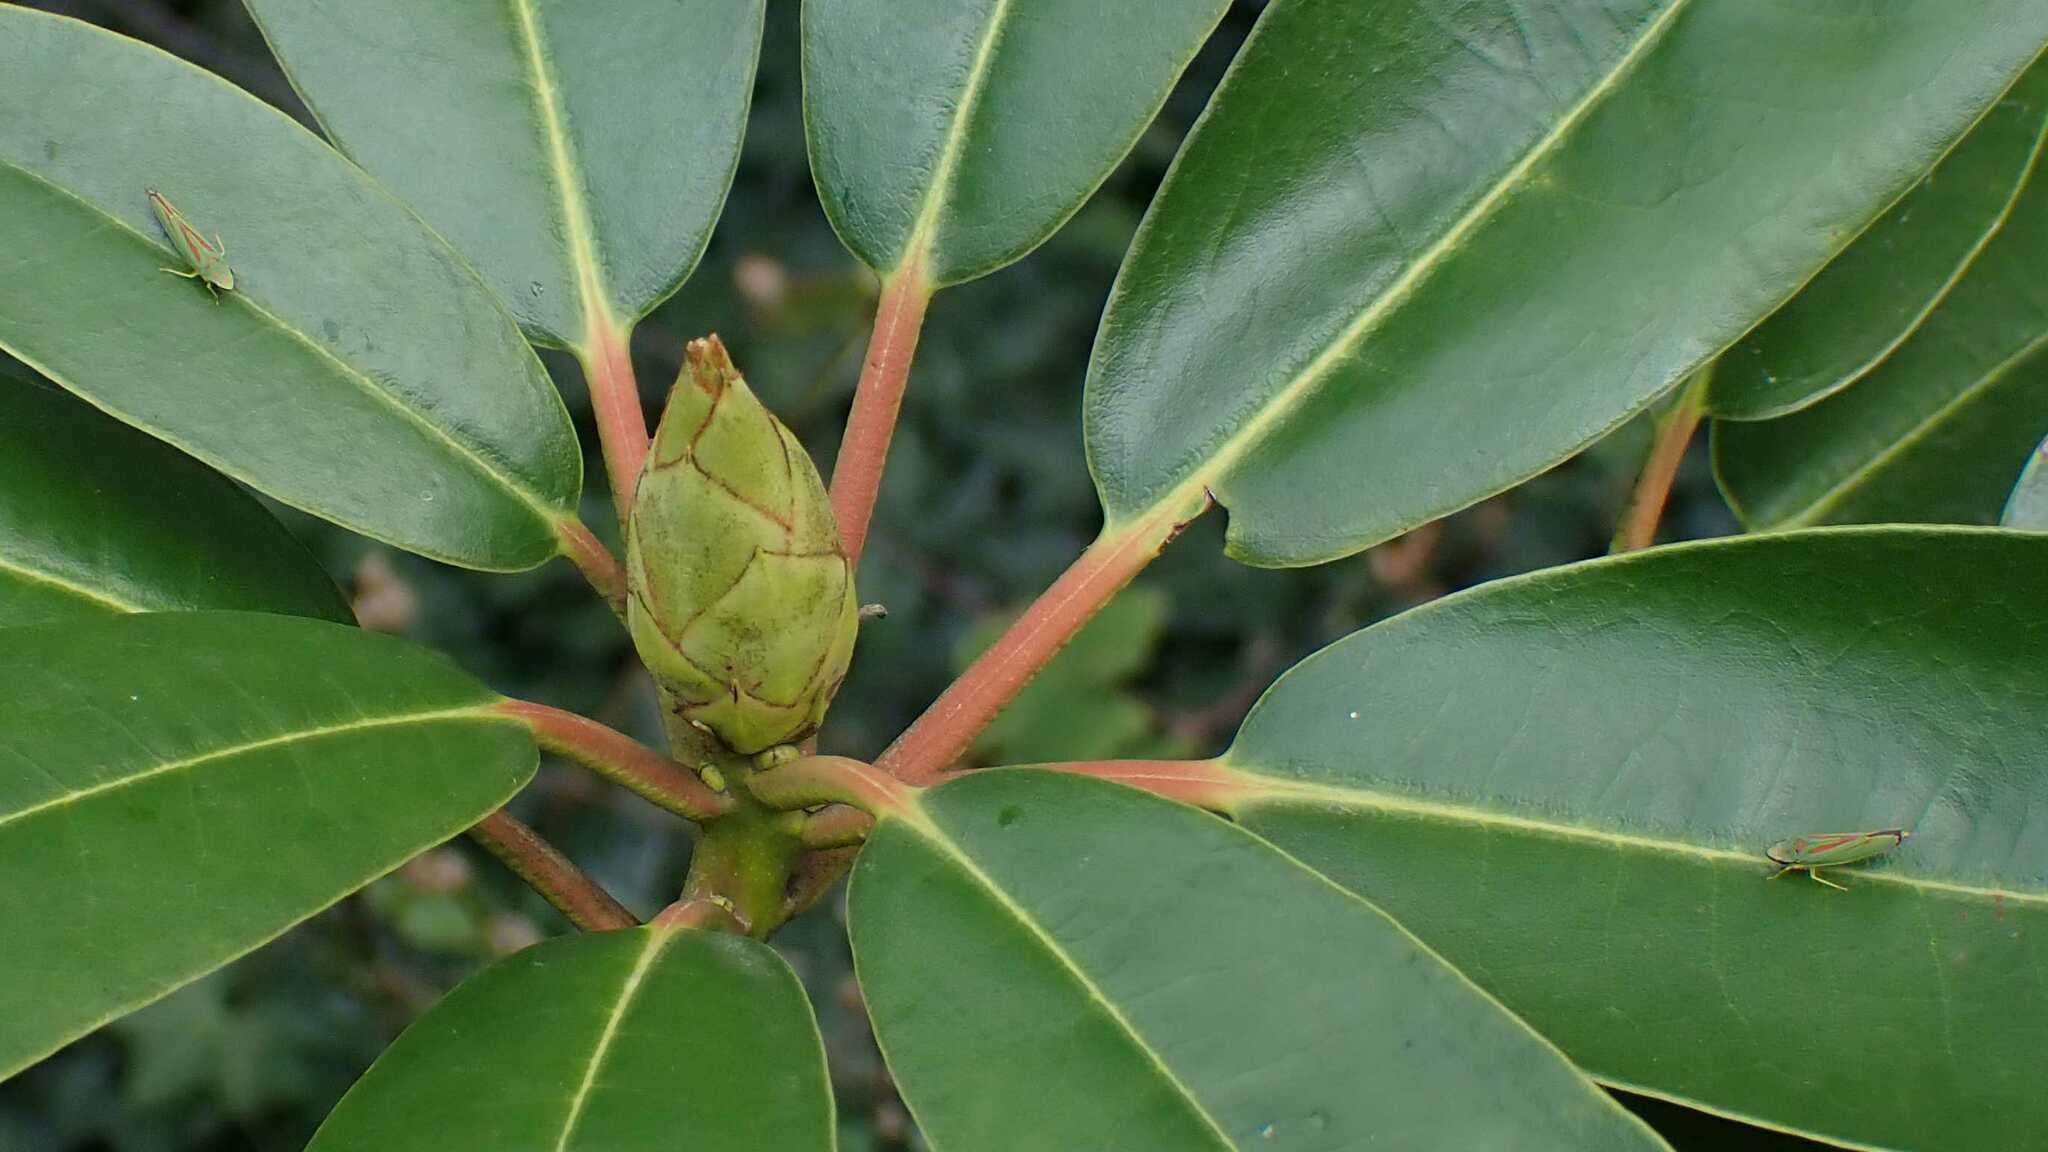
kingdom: Animalia
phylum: Arthropoda
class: Insecta
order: Hemiptera
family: Cicadellidae
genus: Graphocephala
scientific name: Graphocephala fennahi
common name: Rhododendron leafhopper
